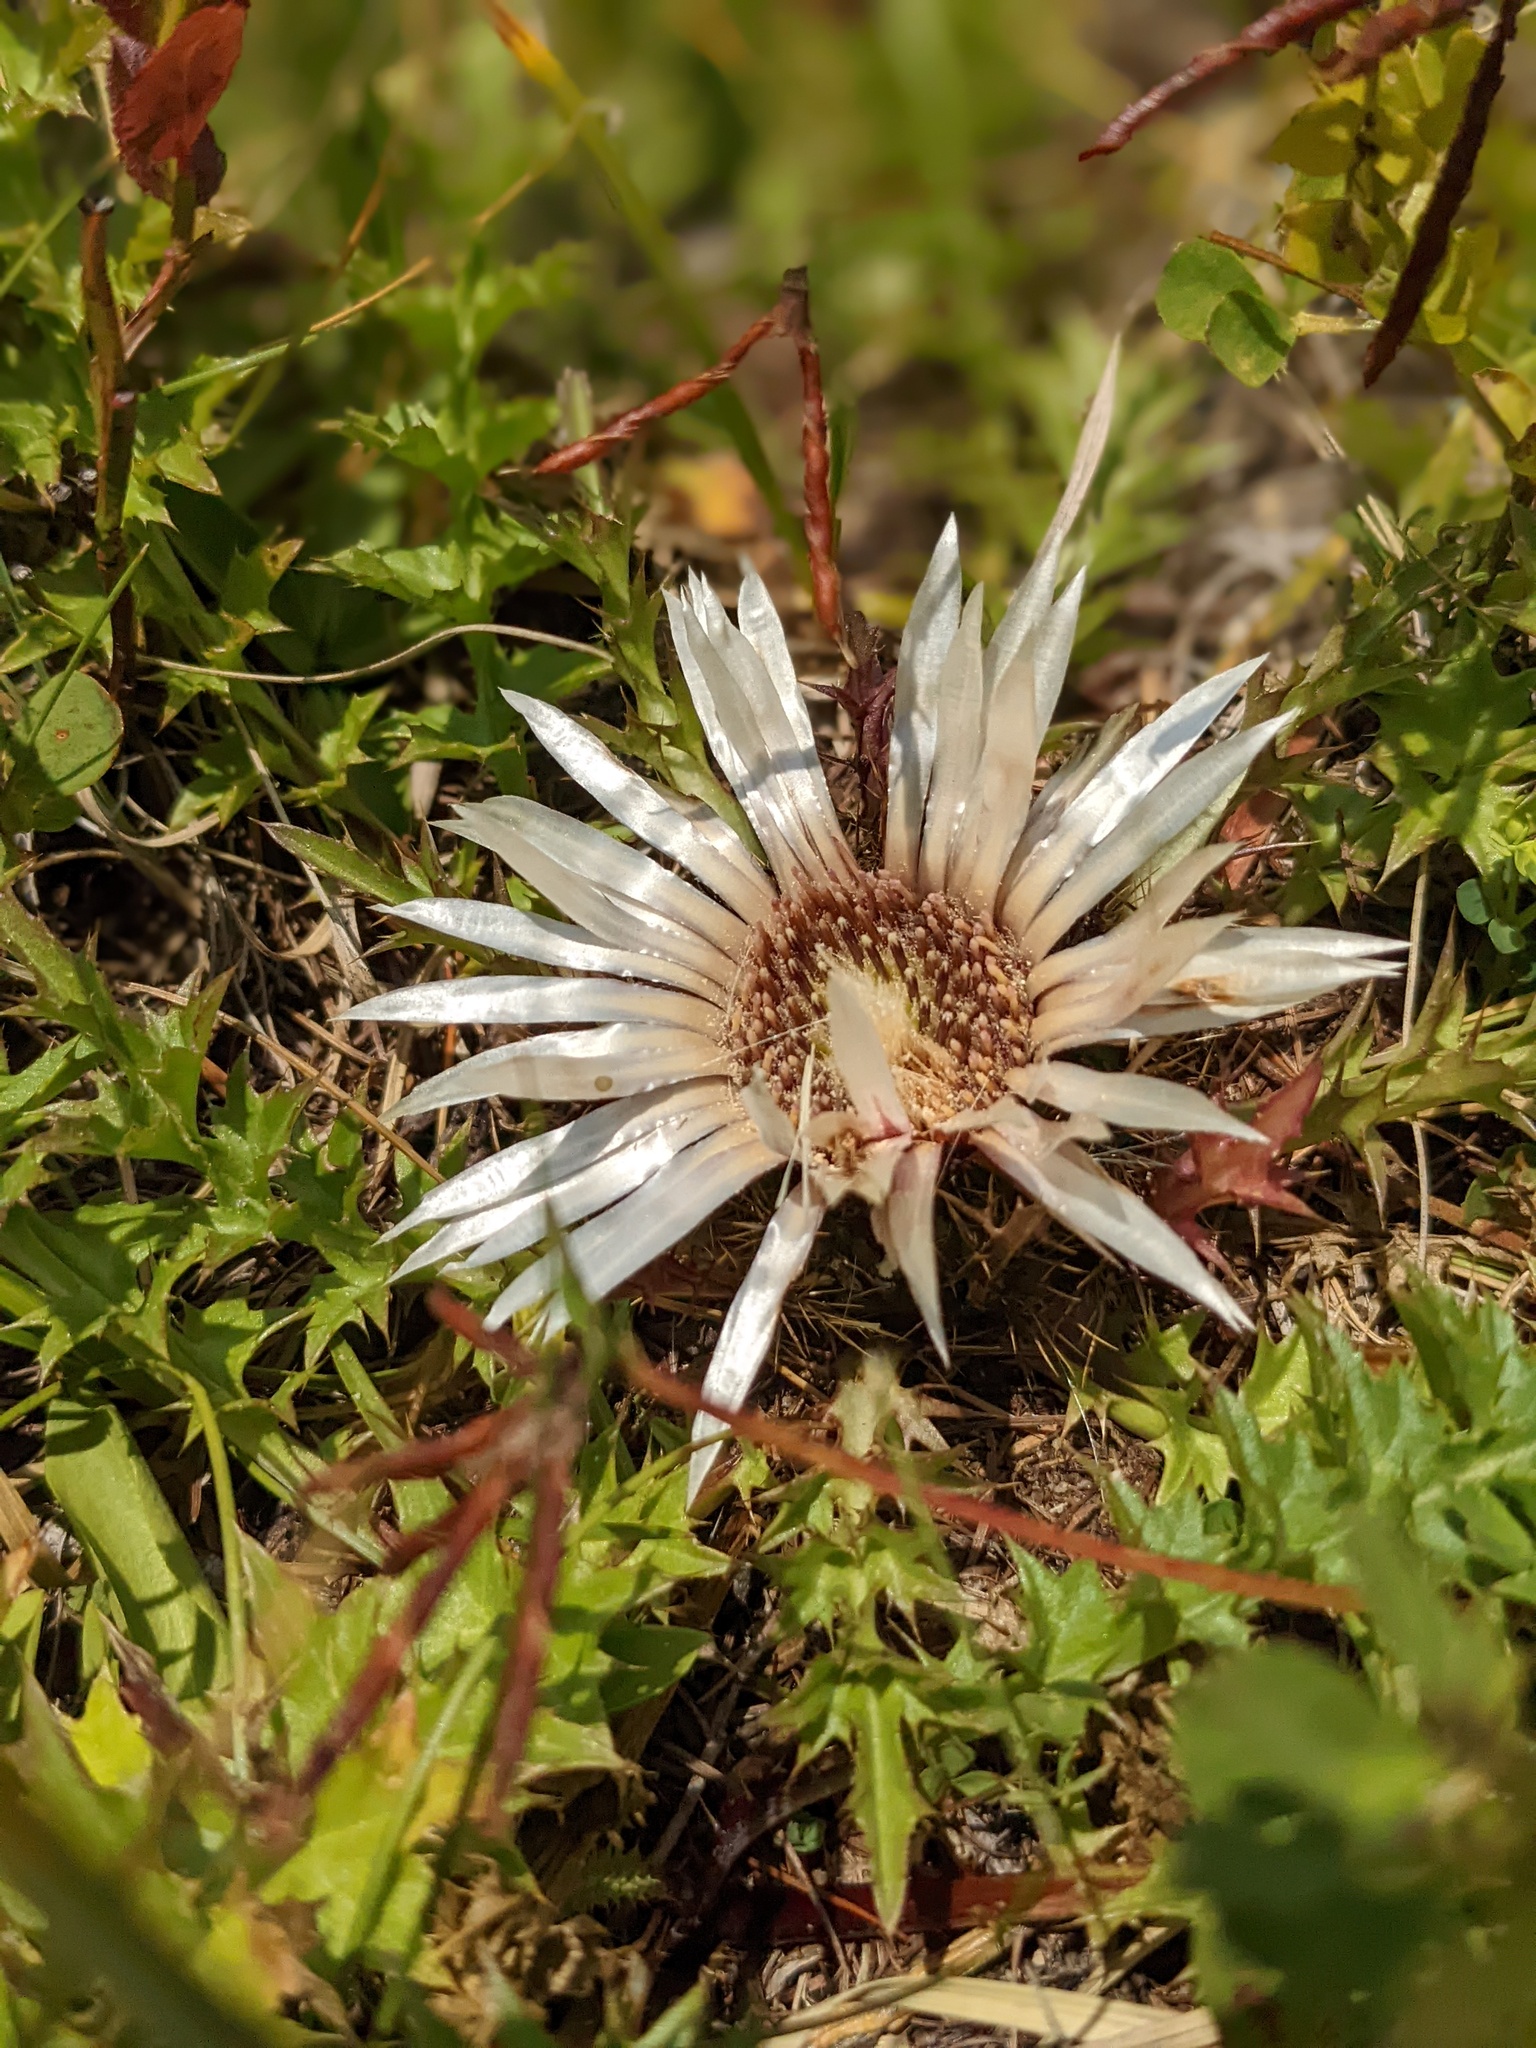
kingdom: Plantae
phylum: Tracheophyta
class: Magnoliopsida
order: Asterales
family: Asteraceae
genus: Carlina
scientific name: Carlina acaulis
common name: Stemless carline thistle
